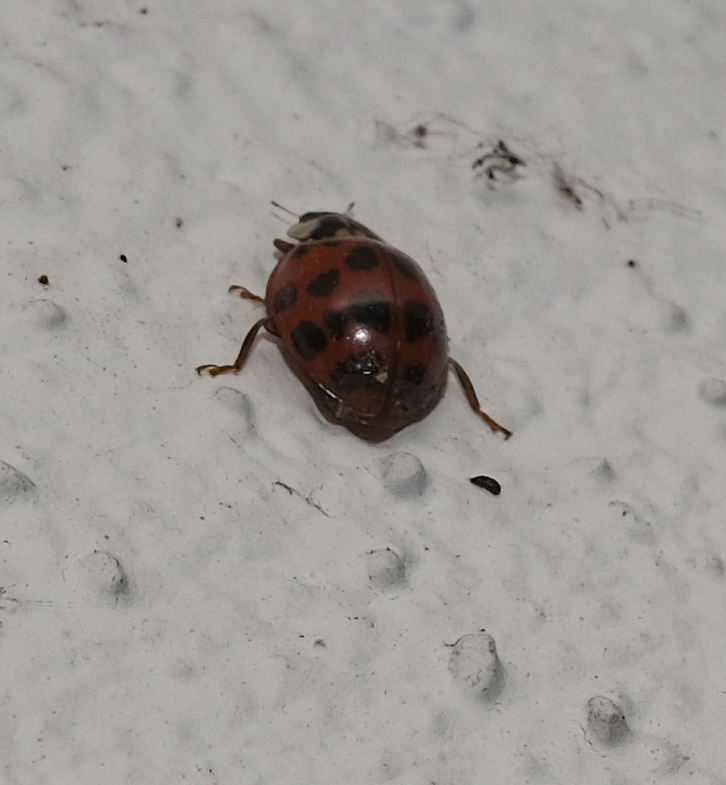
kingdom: Animalia
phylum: Arthropoda
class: Insecta
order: Coleoptera
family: Coccinellidae
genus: Harmonia
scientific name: Harmonia axyridis
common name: Harlequin ladybird
